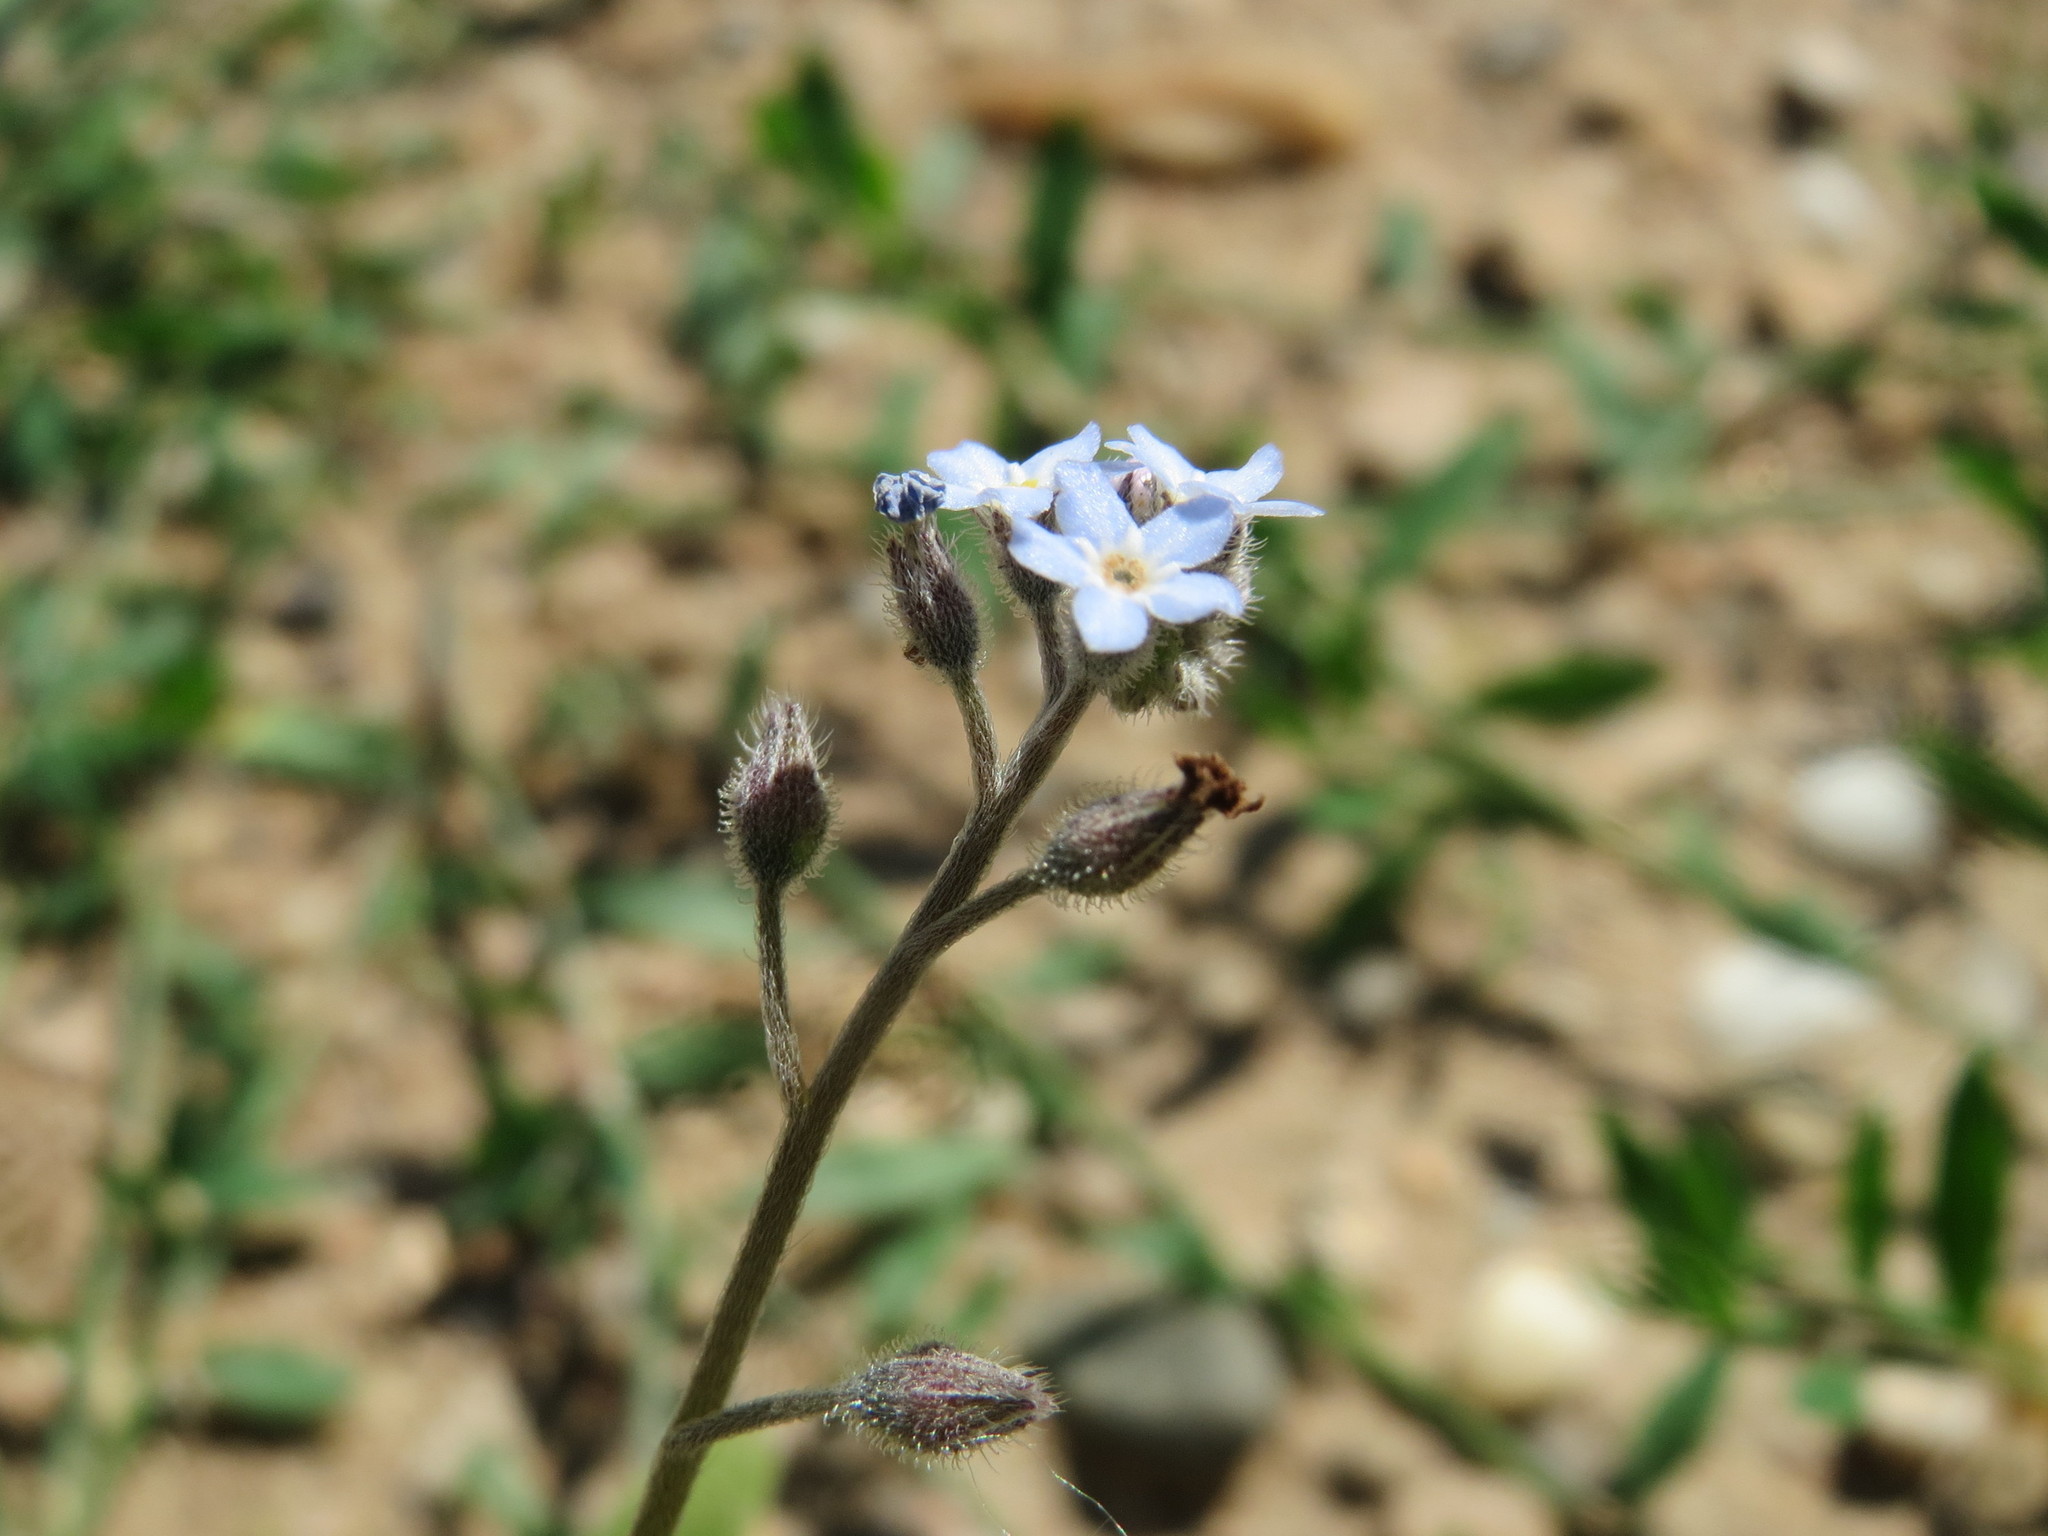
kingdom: Plantae
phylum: Tracheophyta
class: Magnoliopsida
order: Boraginales
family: Boraginaceae
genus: Myosotis
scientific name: Myosotis arvensis
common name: Field forget-me-not
